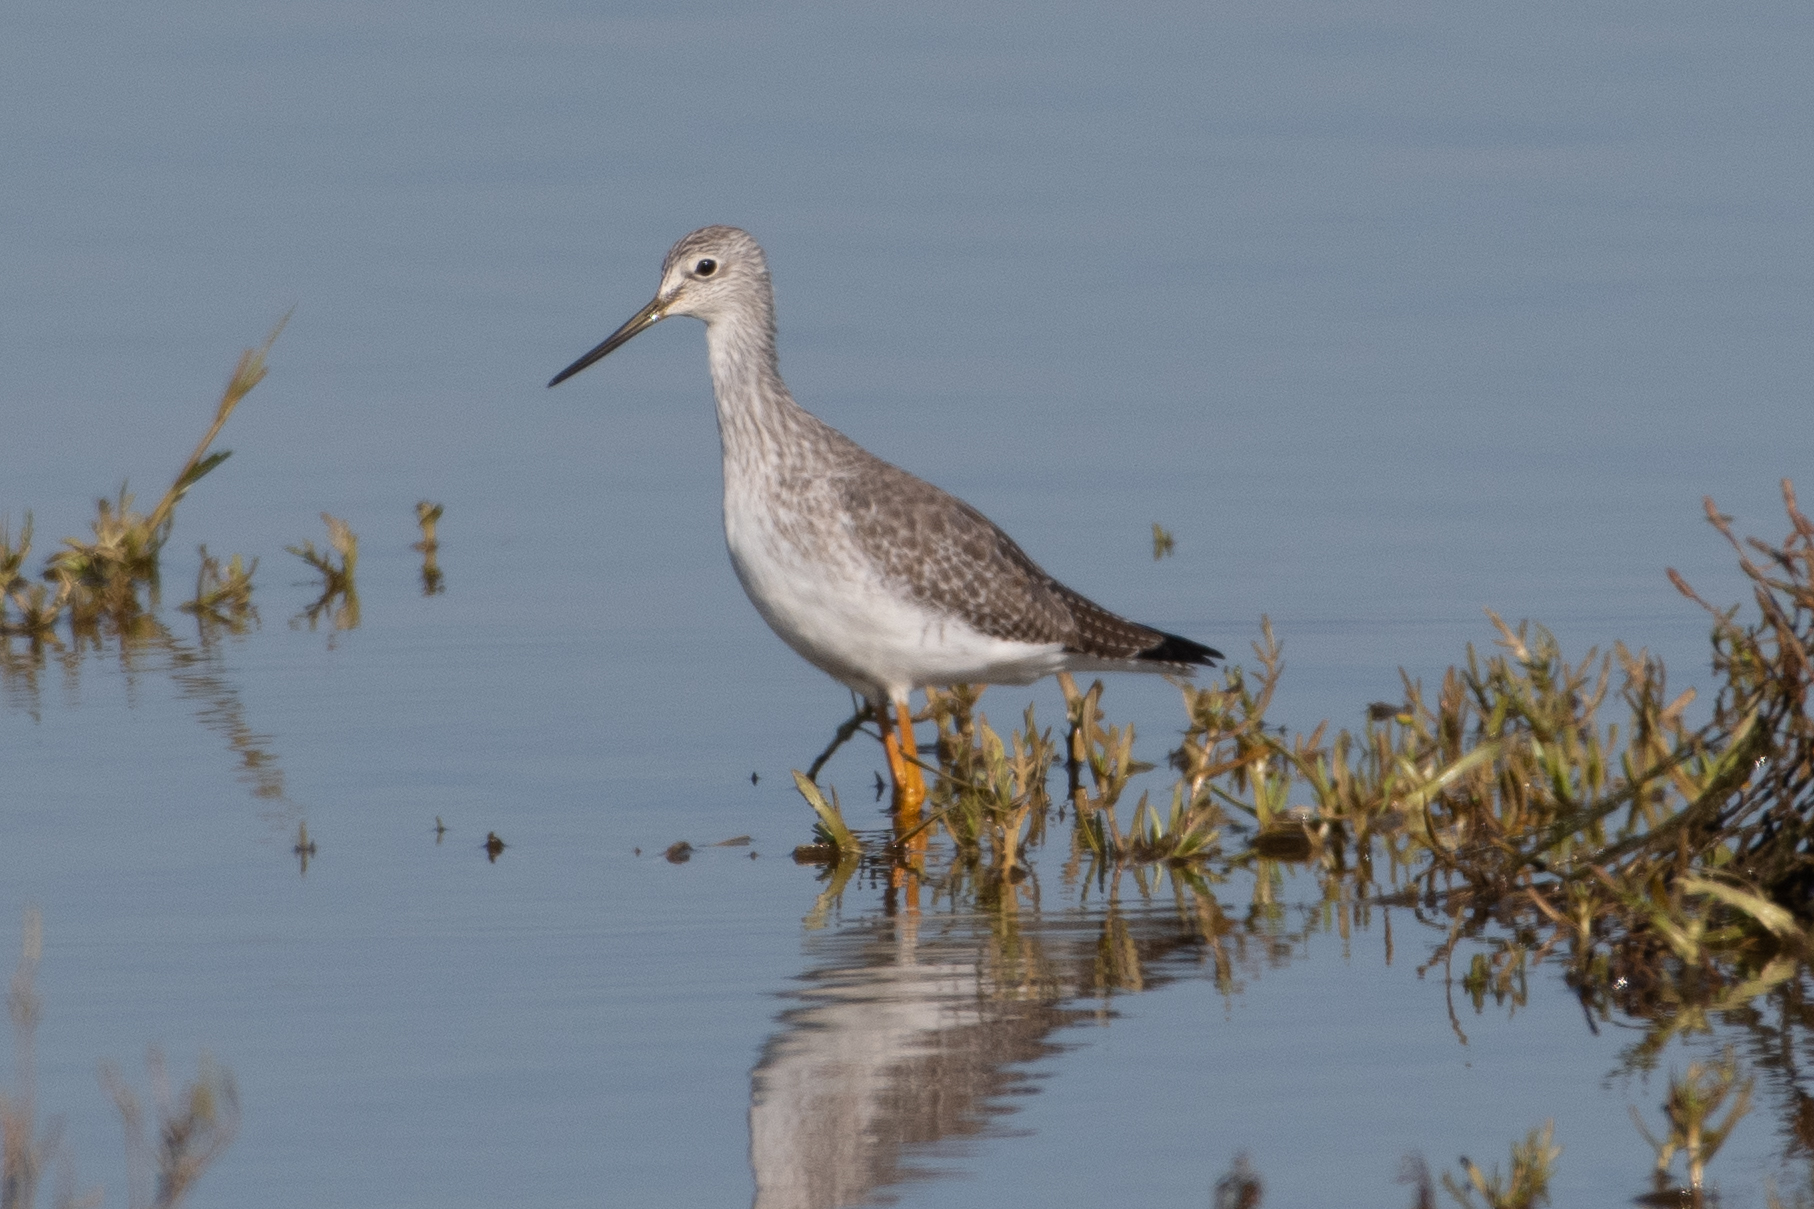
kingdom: Animalia
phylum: Chordata
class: Aves
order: Charadriiformes
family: Scolopacidae
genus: Tringa
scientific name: Tringa melanoleuca
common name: Greater yellowlegs
